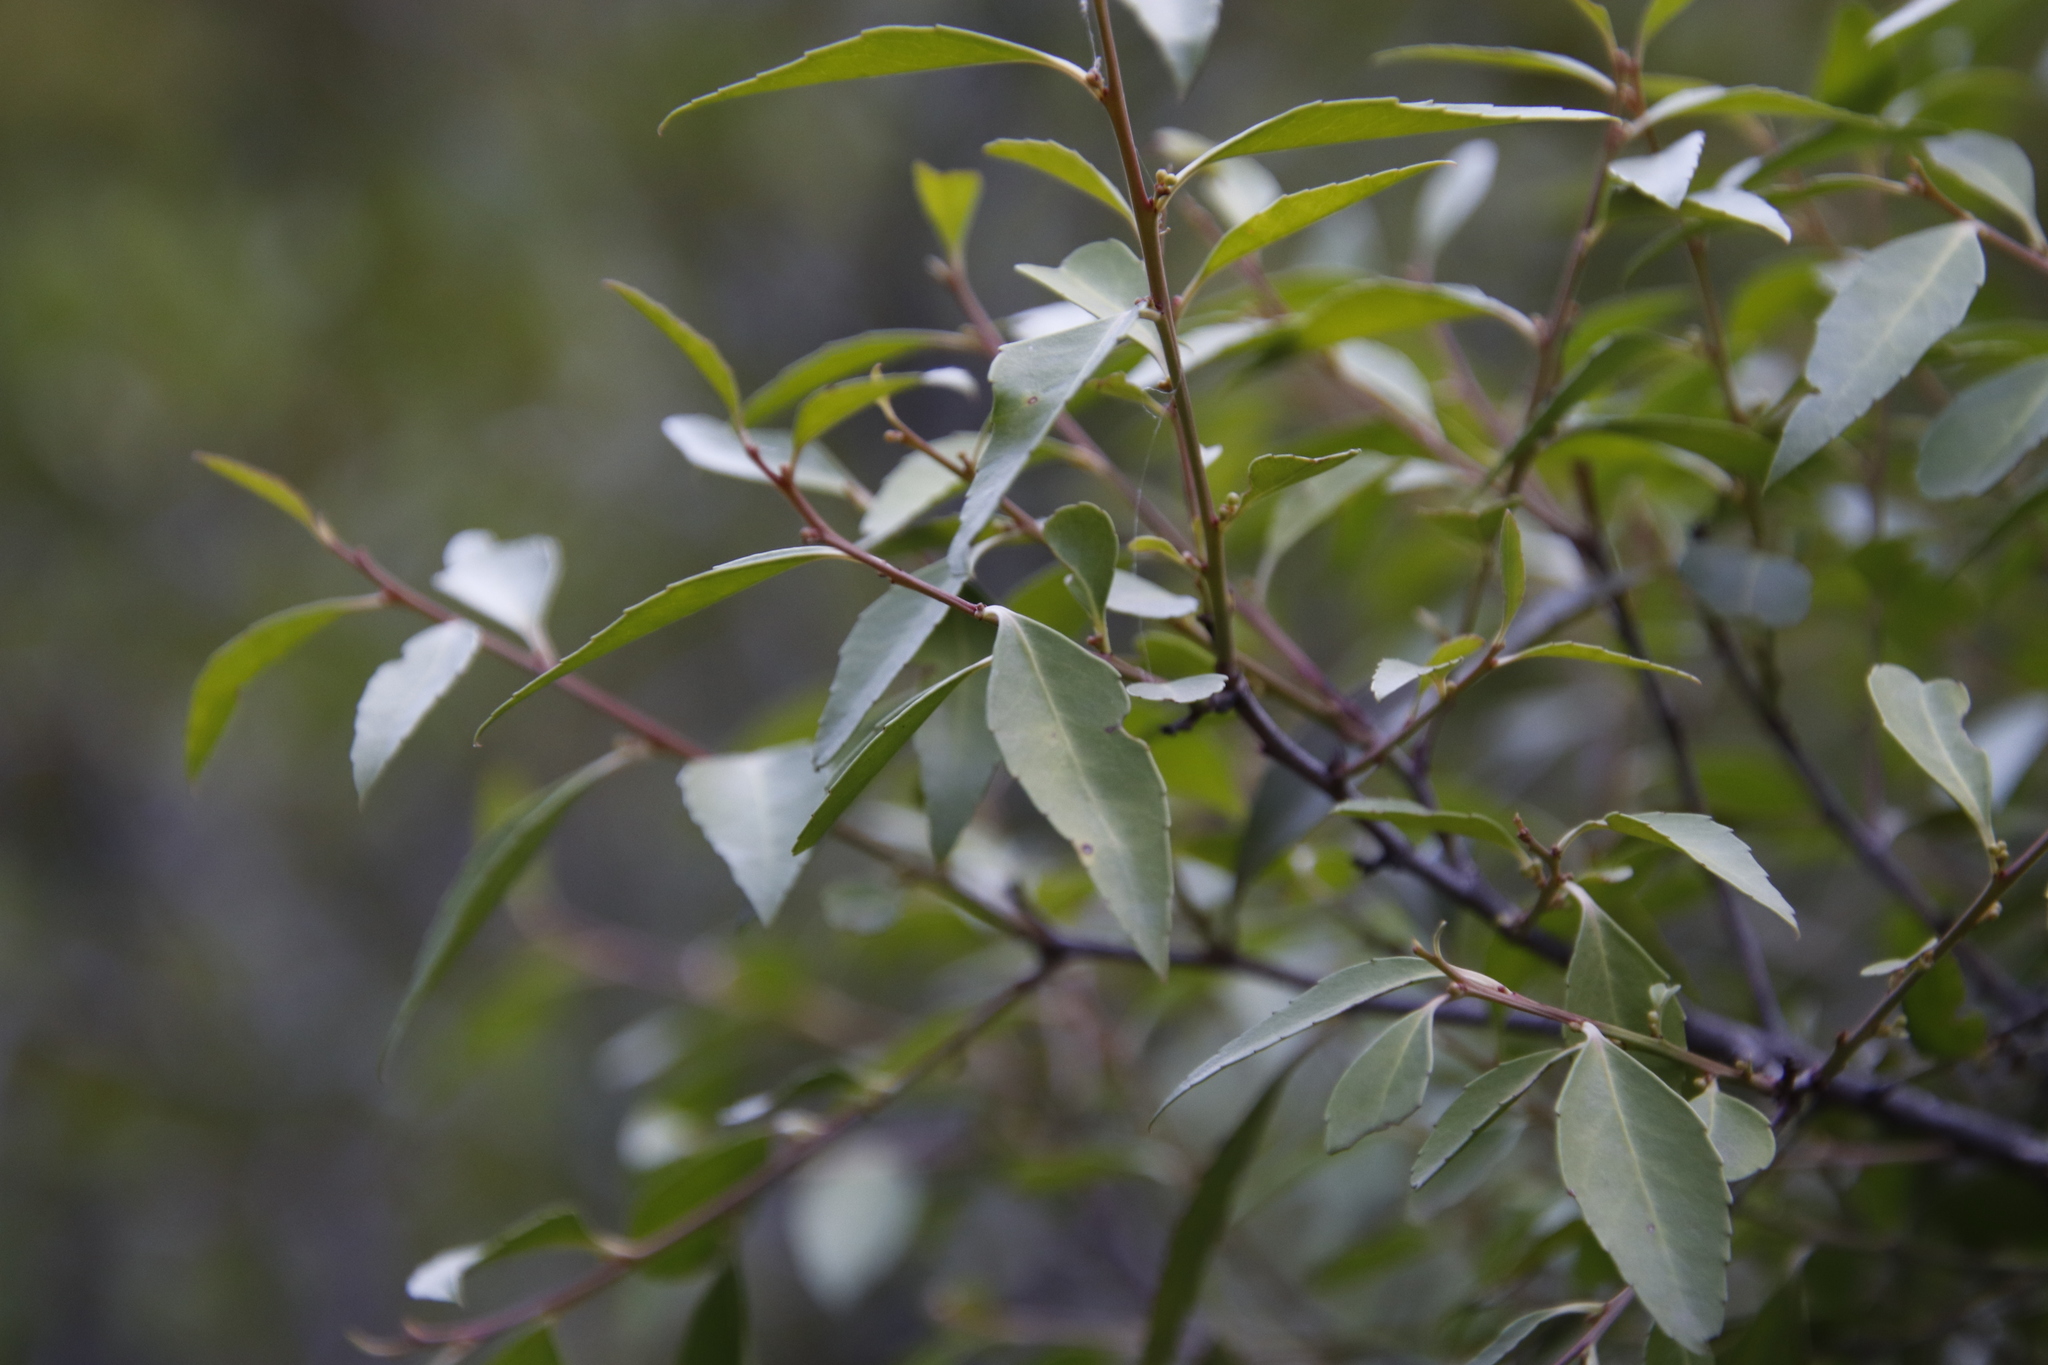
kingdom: Plantae
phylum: Tracheophyta
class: Magnoliopsida
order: Celastrales
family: Celastraceae
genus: Gymnosporia
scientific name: Gymnosporia acuminata
